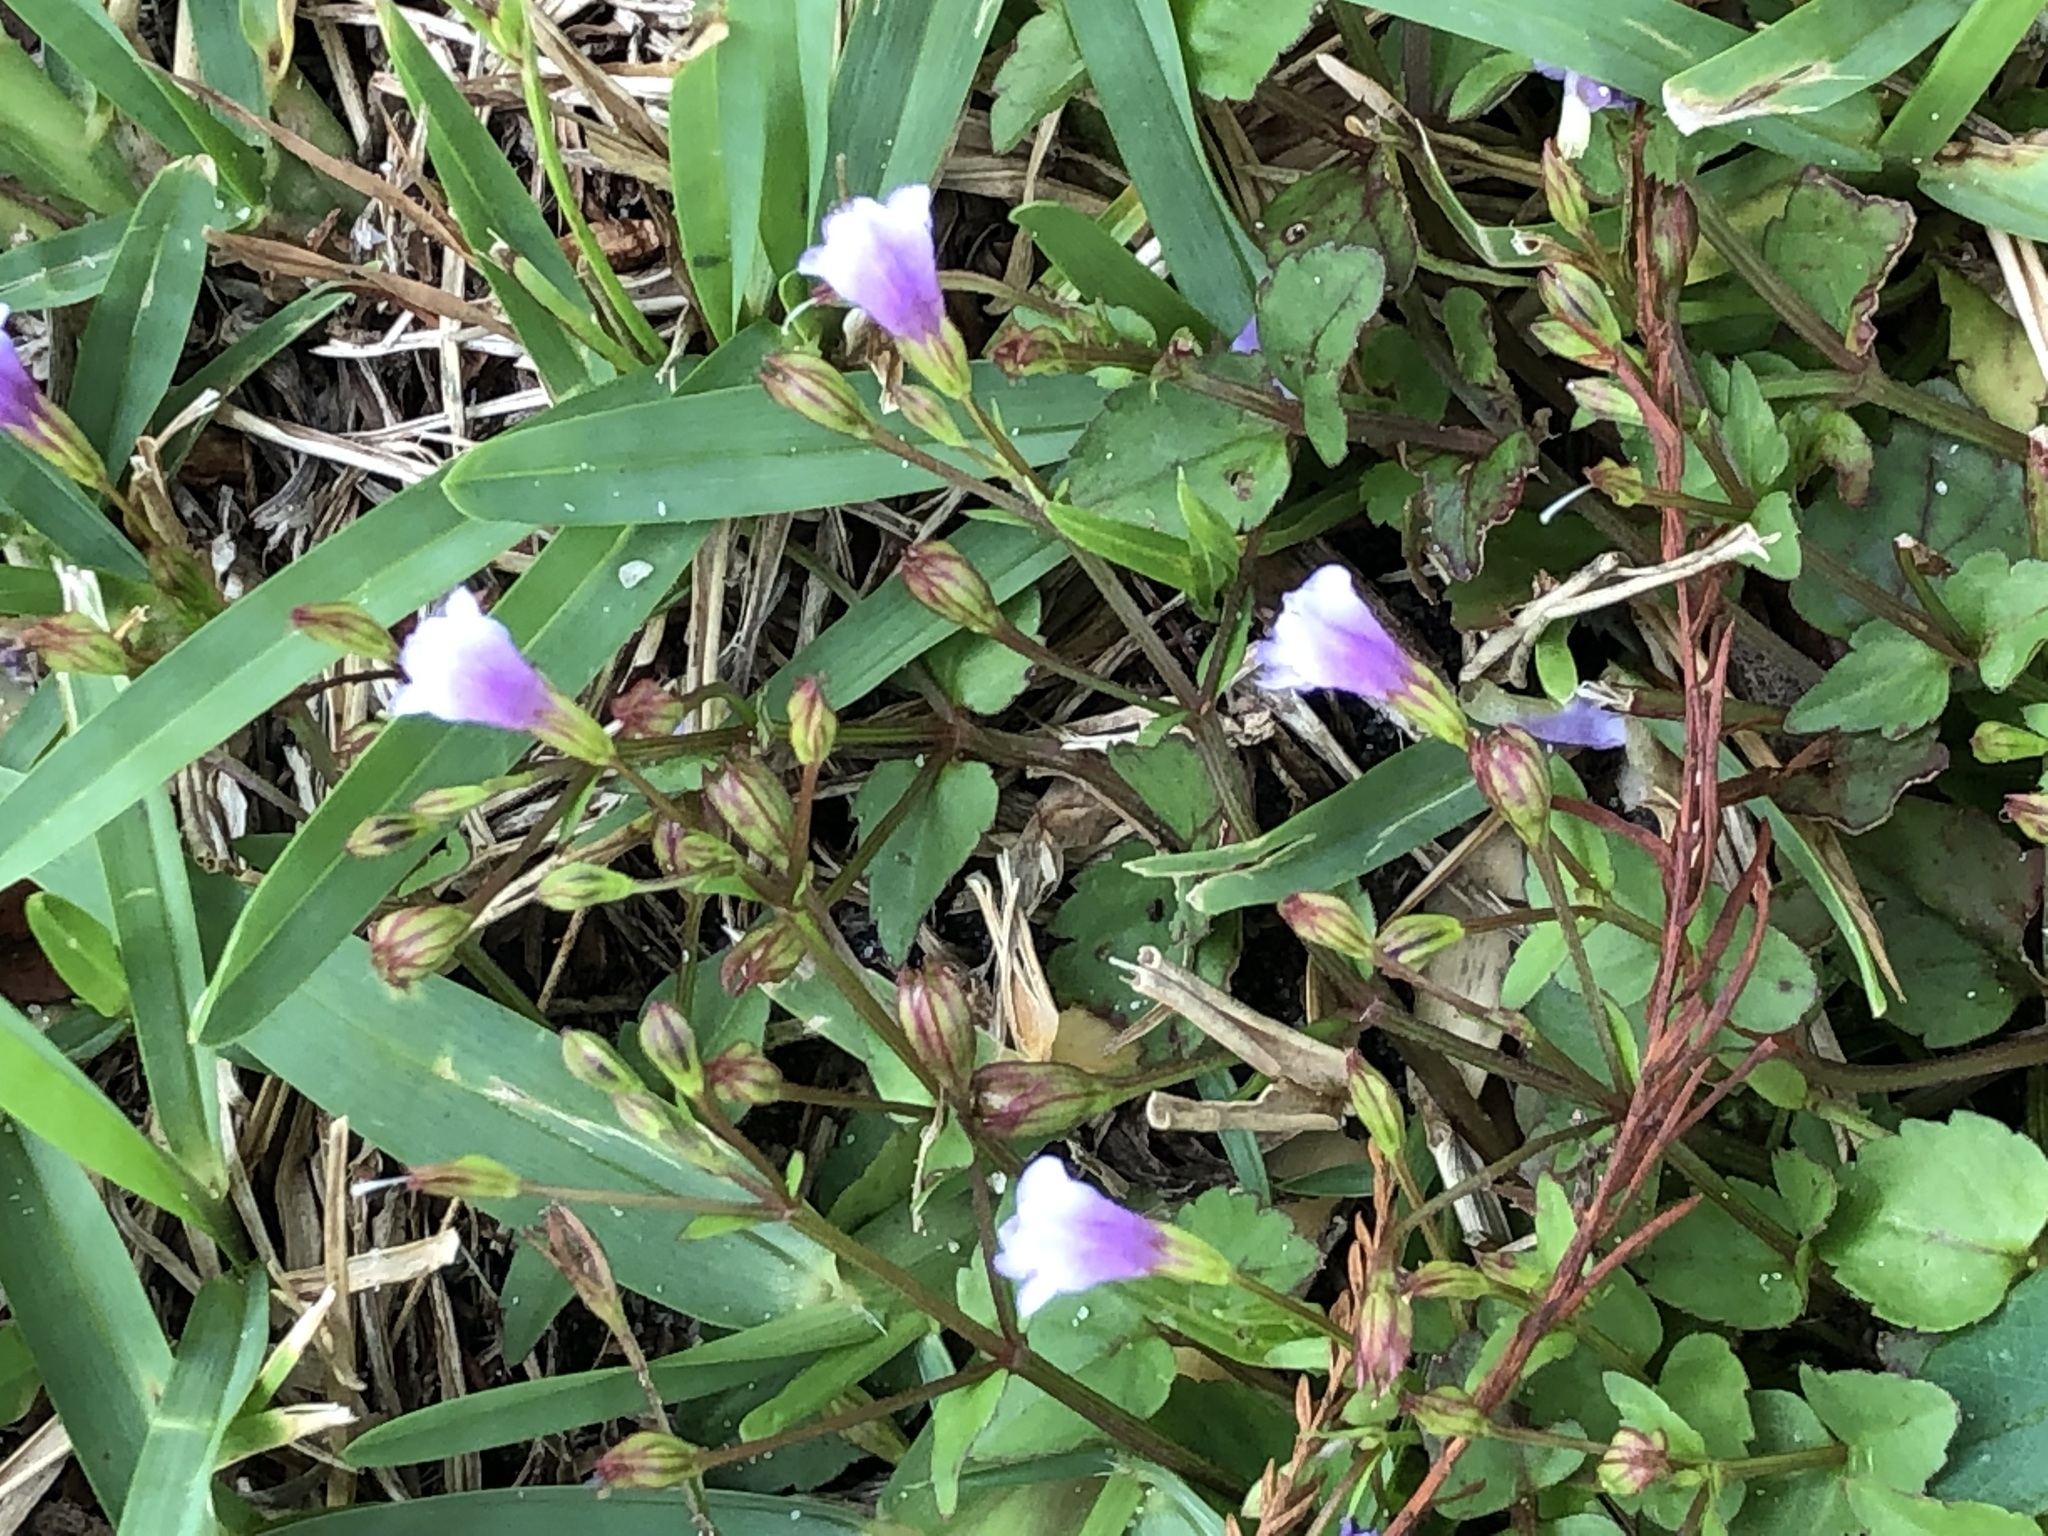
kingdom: Plantae
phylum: Tracheophyta
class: Magnoliopsida
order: Lamiales
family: Linderniaceae
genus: Torenia
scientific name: Torenia crustacea
